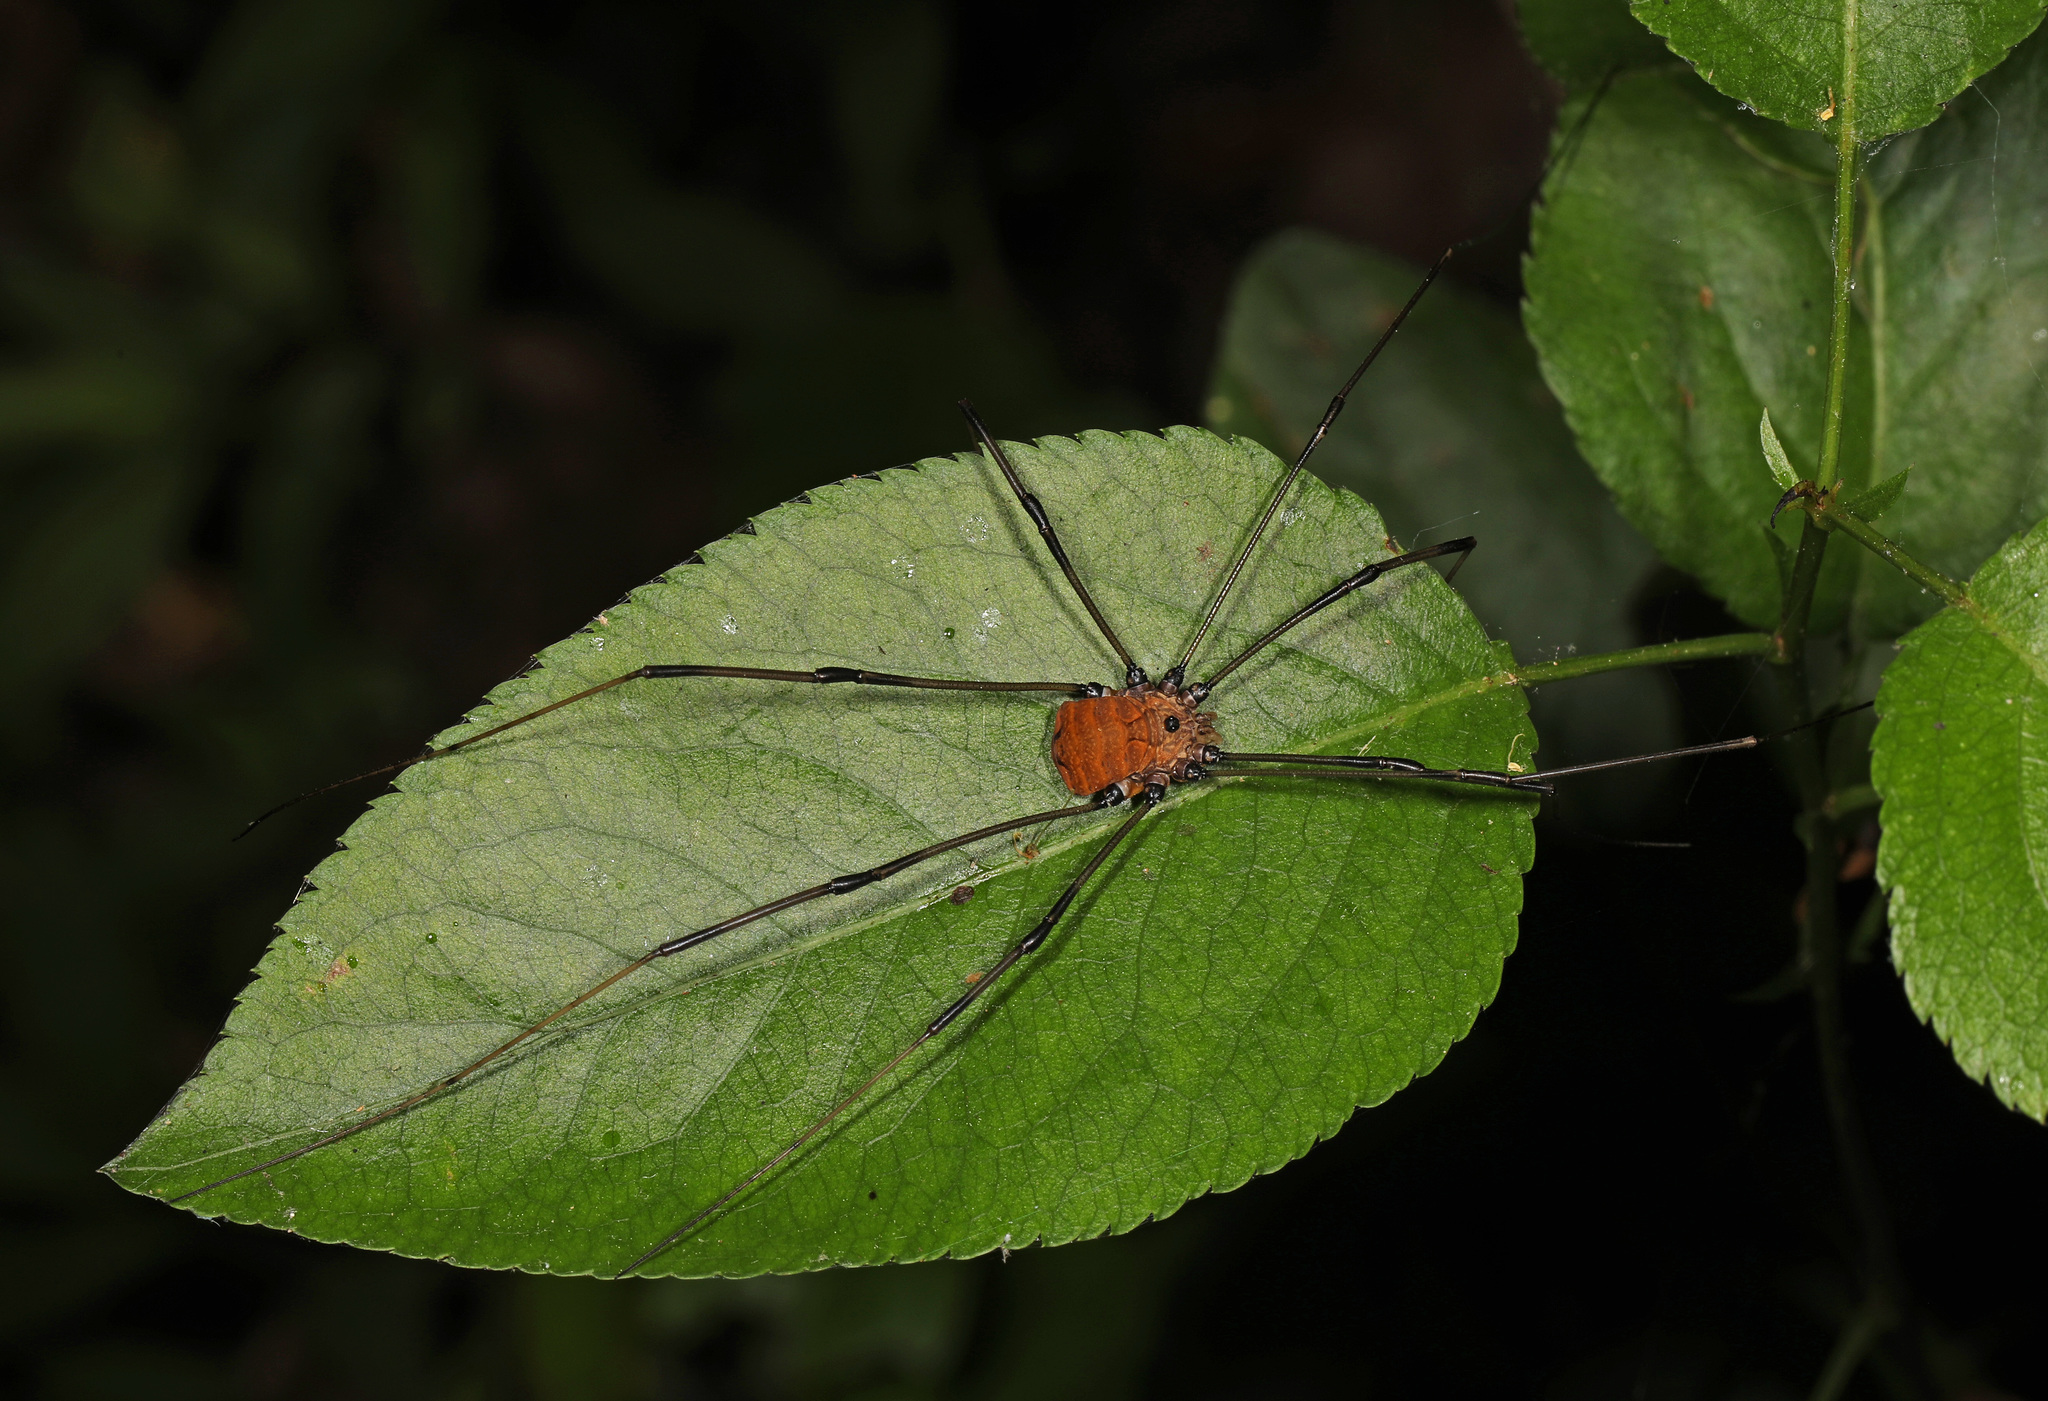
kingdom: Animalia
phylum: Arthropoda
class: Arachnida
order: Opiliones
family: Sclerosomatidae
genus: Leiobunum
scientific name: Leiobunum verrucosum
